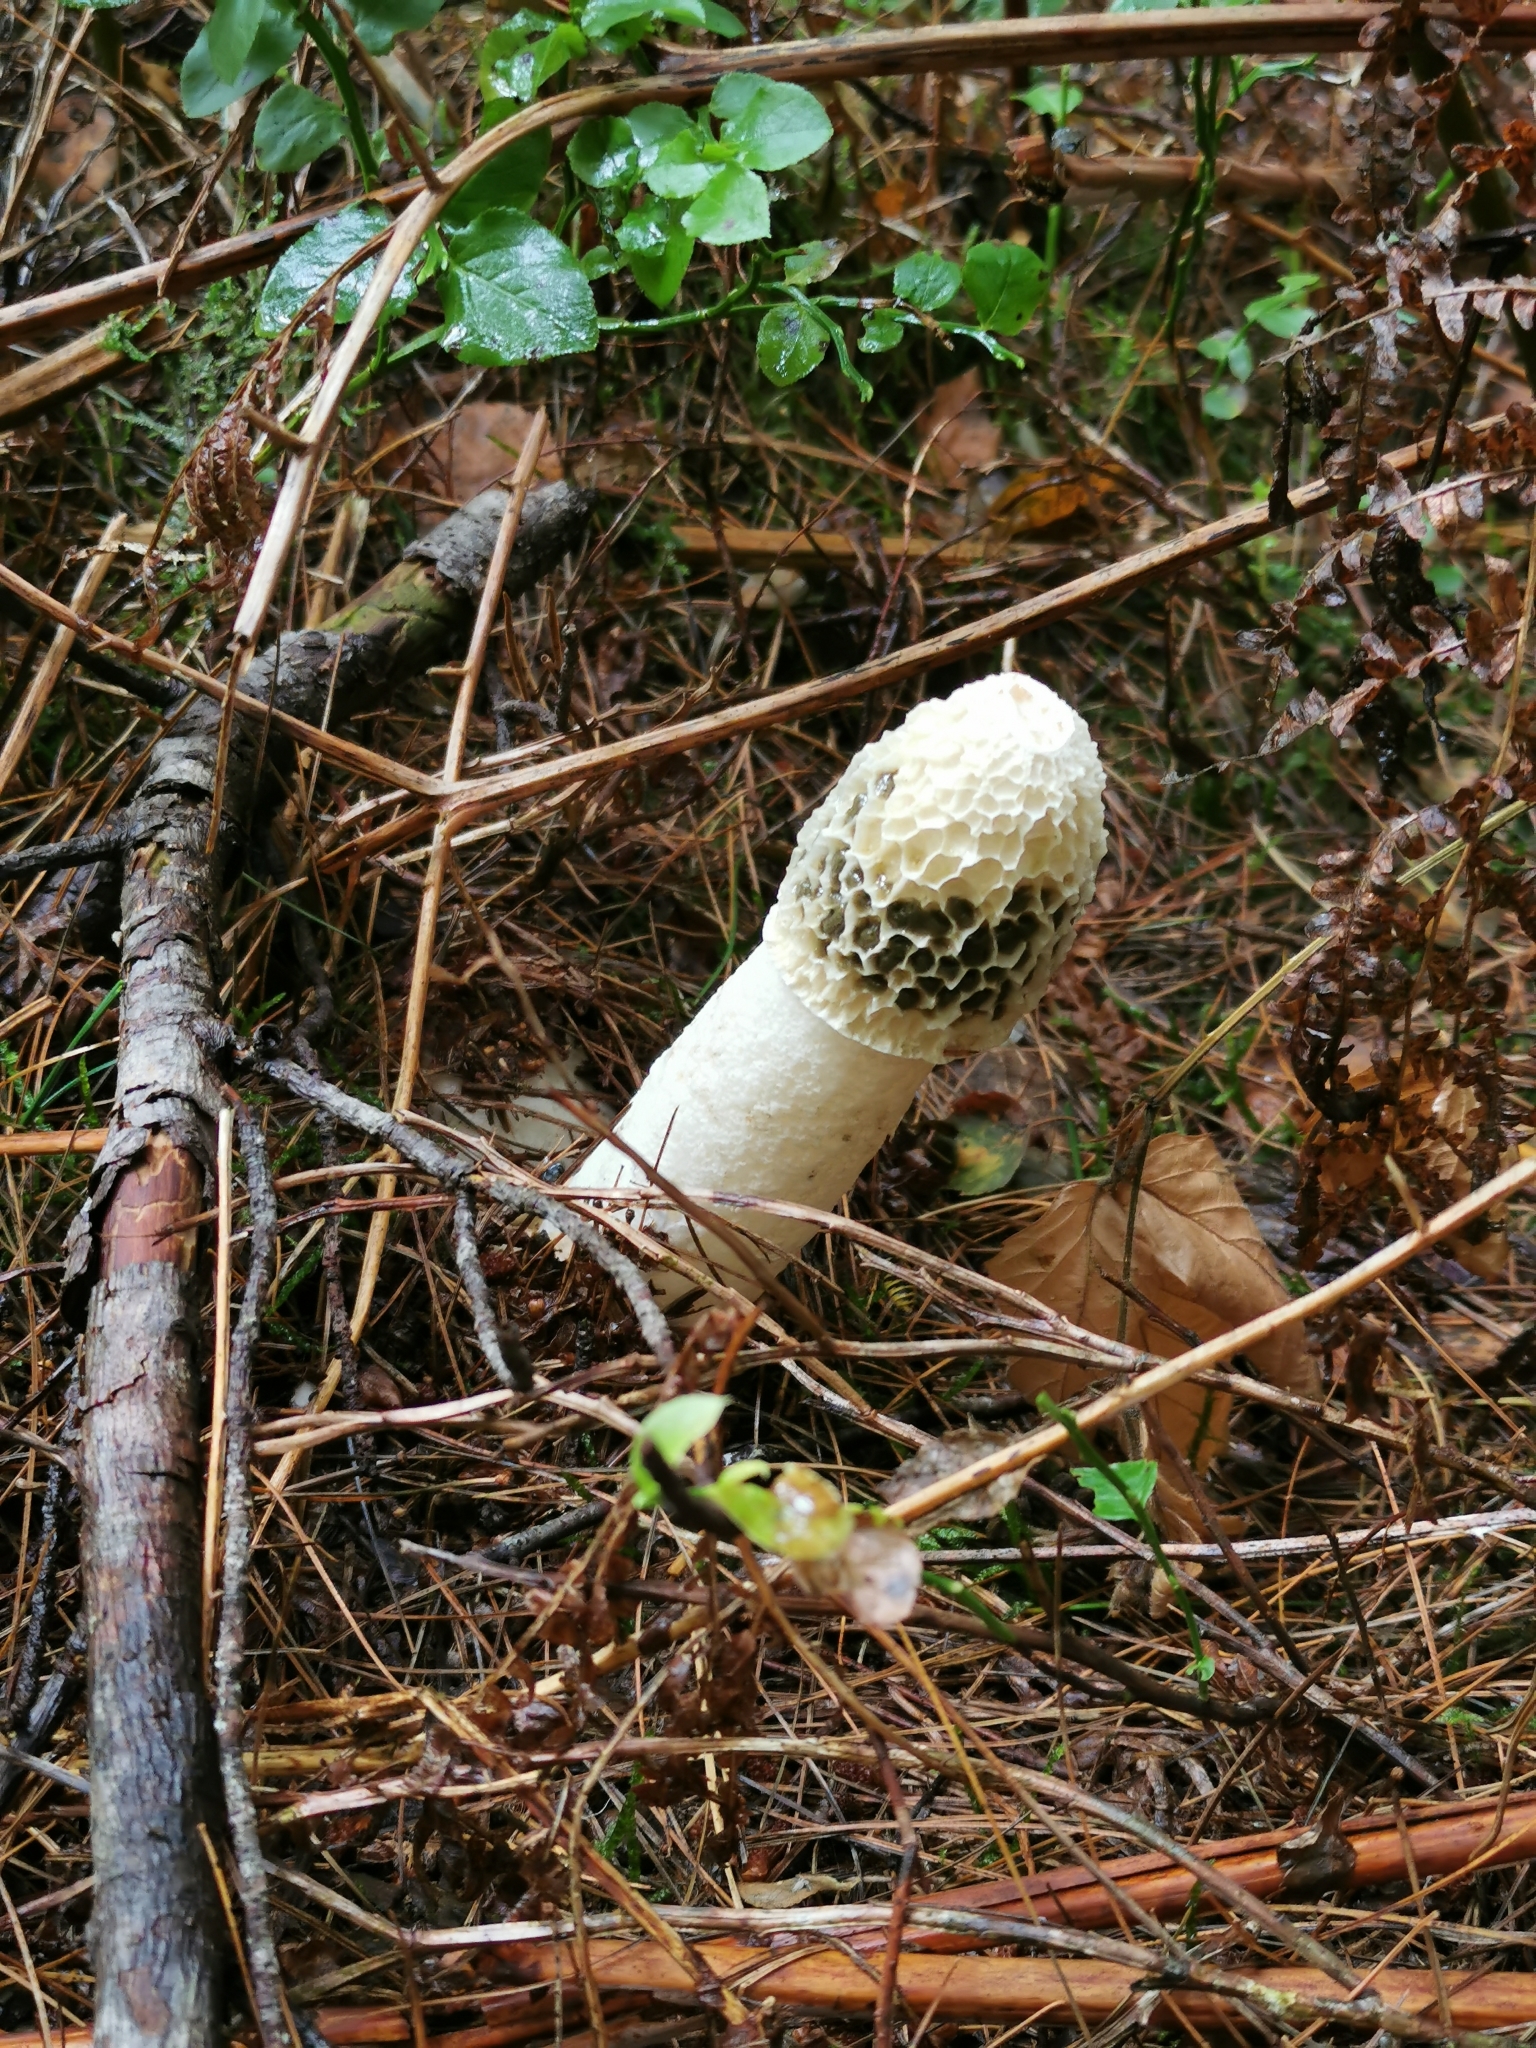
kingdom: Fungi
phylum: Basidiomycota
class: Agaricomycetes
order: Phallales
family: Phallaceae
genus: Phallus
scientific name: Phallus impudicus
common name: Common stinkhorn
